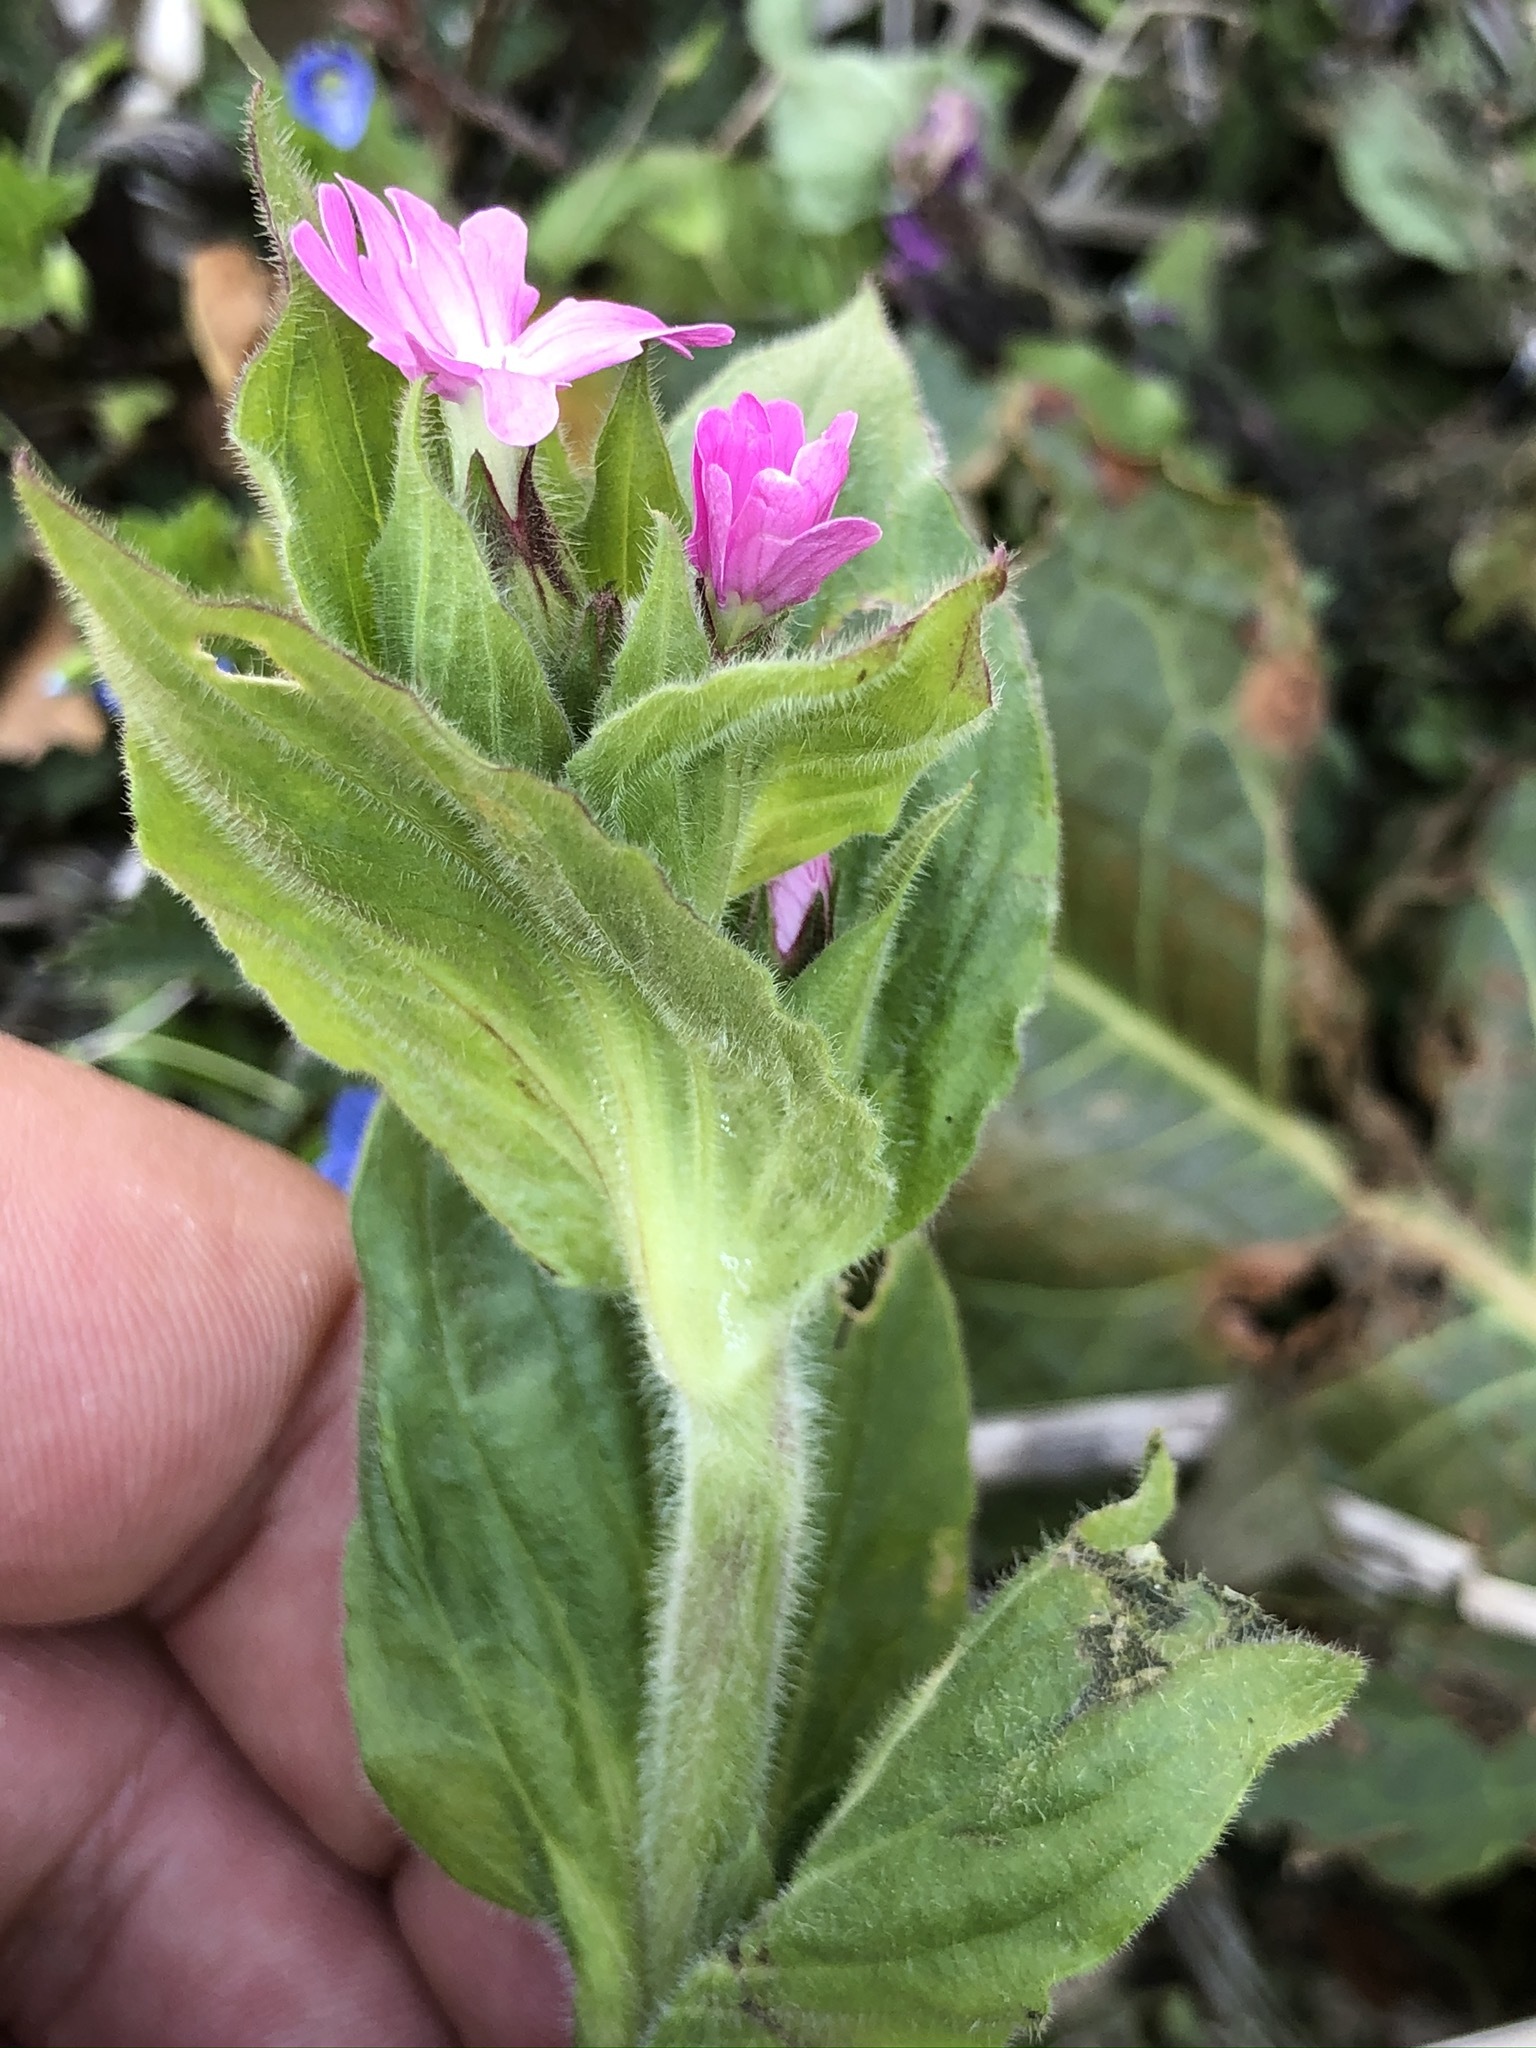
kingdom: Plantae
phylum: Tracheophyta
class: Magnoliopsida
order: Caryophyllales
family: Caryophyllaceae
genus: Silene
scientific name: Silene dioica
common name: Red campion
